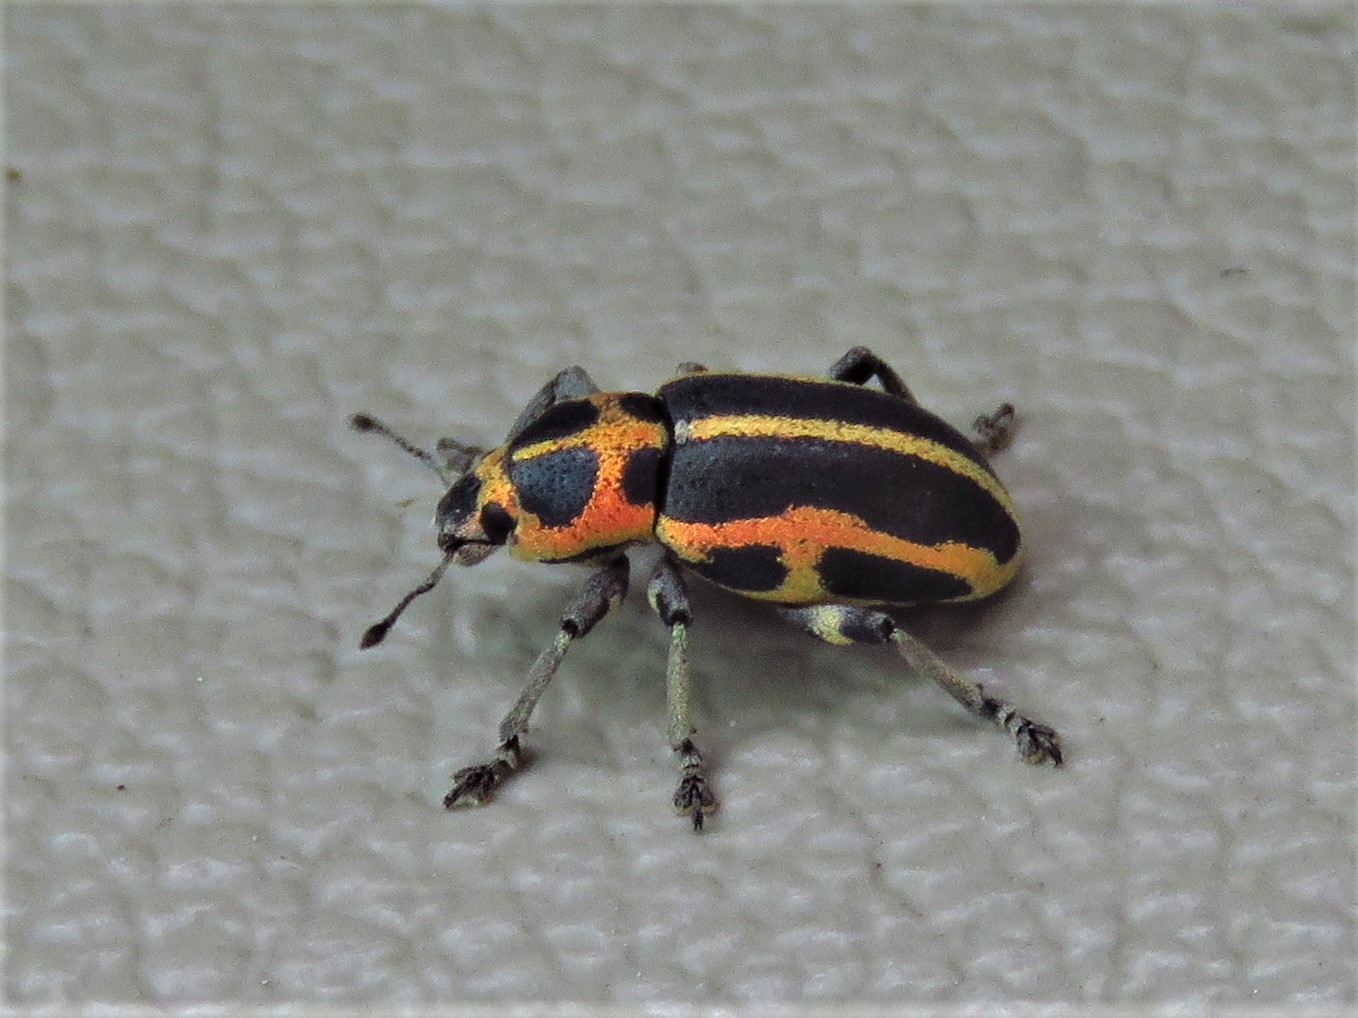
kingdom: Animalia
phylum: Arthropoda
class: Insecta
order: Coleoptera
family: Curculionidae
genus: Eudiagogus
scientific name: Eudiagogus pulcher
